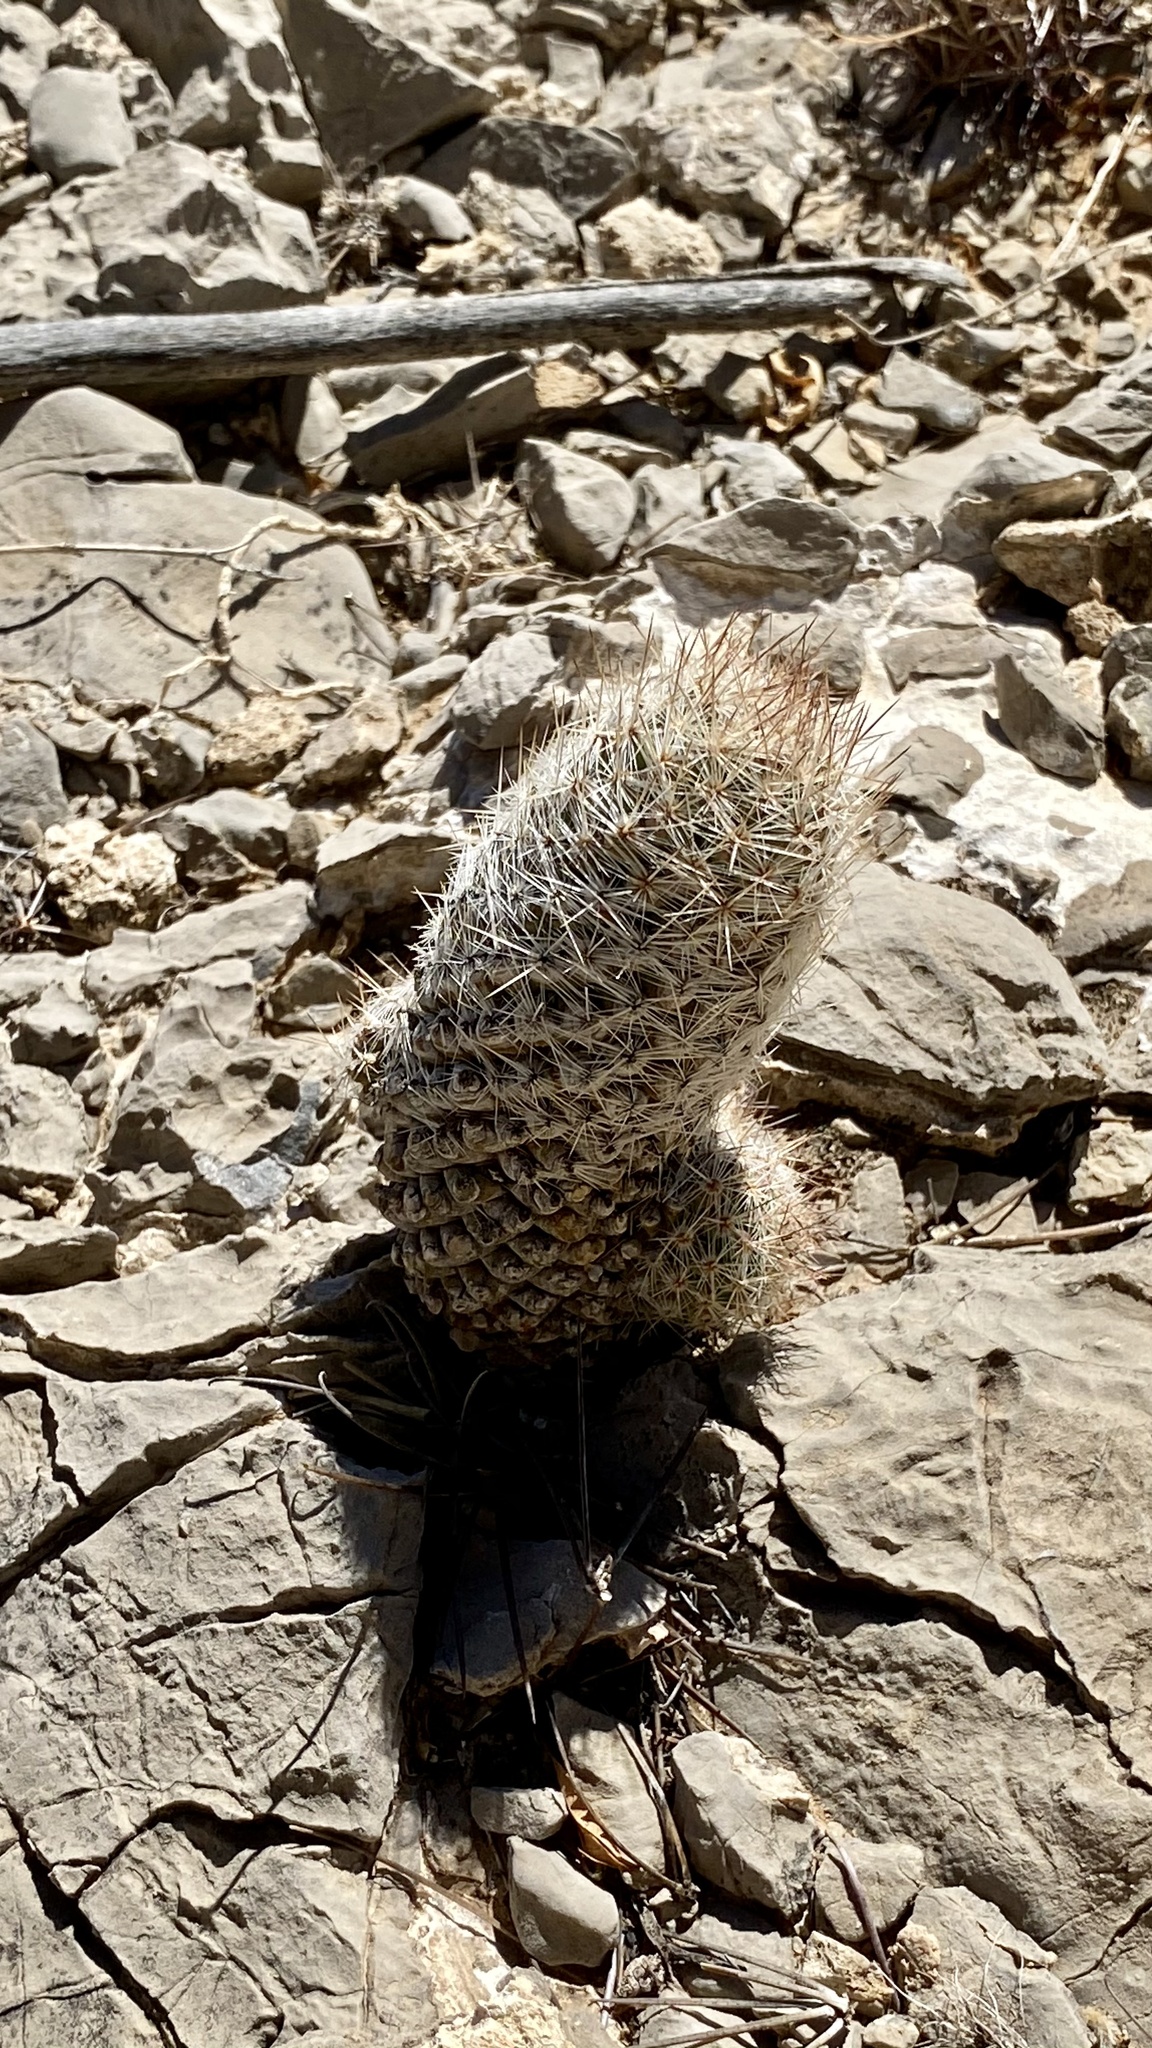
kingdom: Plantae
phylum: Tracheophyta
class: Magnoliopsida
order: Caryophyllales
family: Cactaceae
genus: Pelecyphora
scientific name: Pelecyphora tuberculosa
